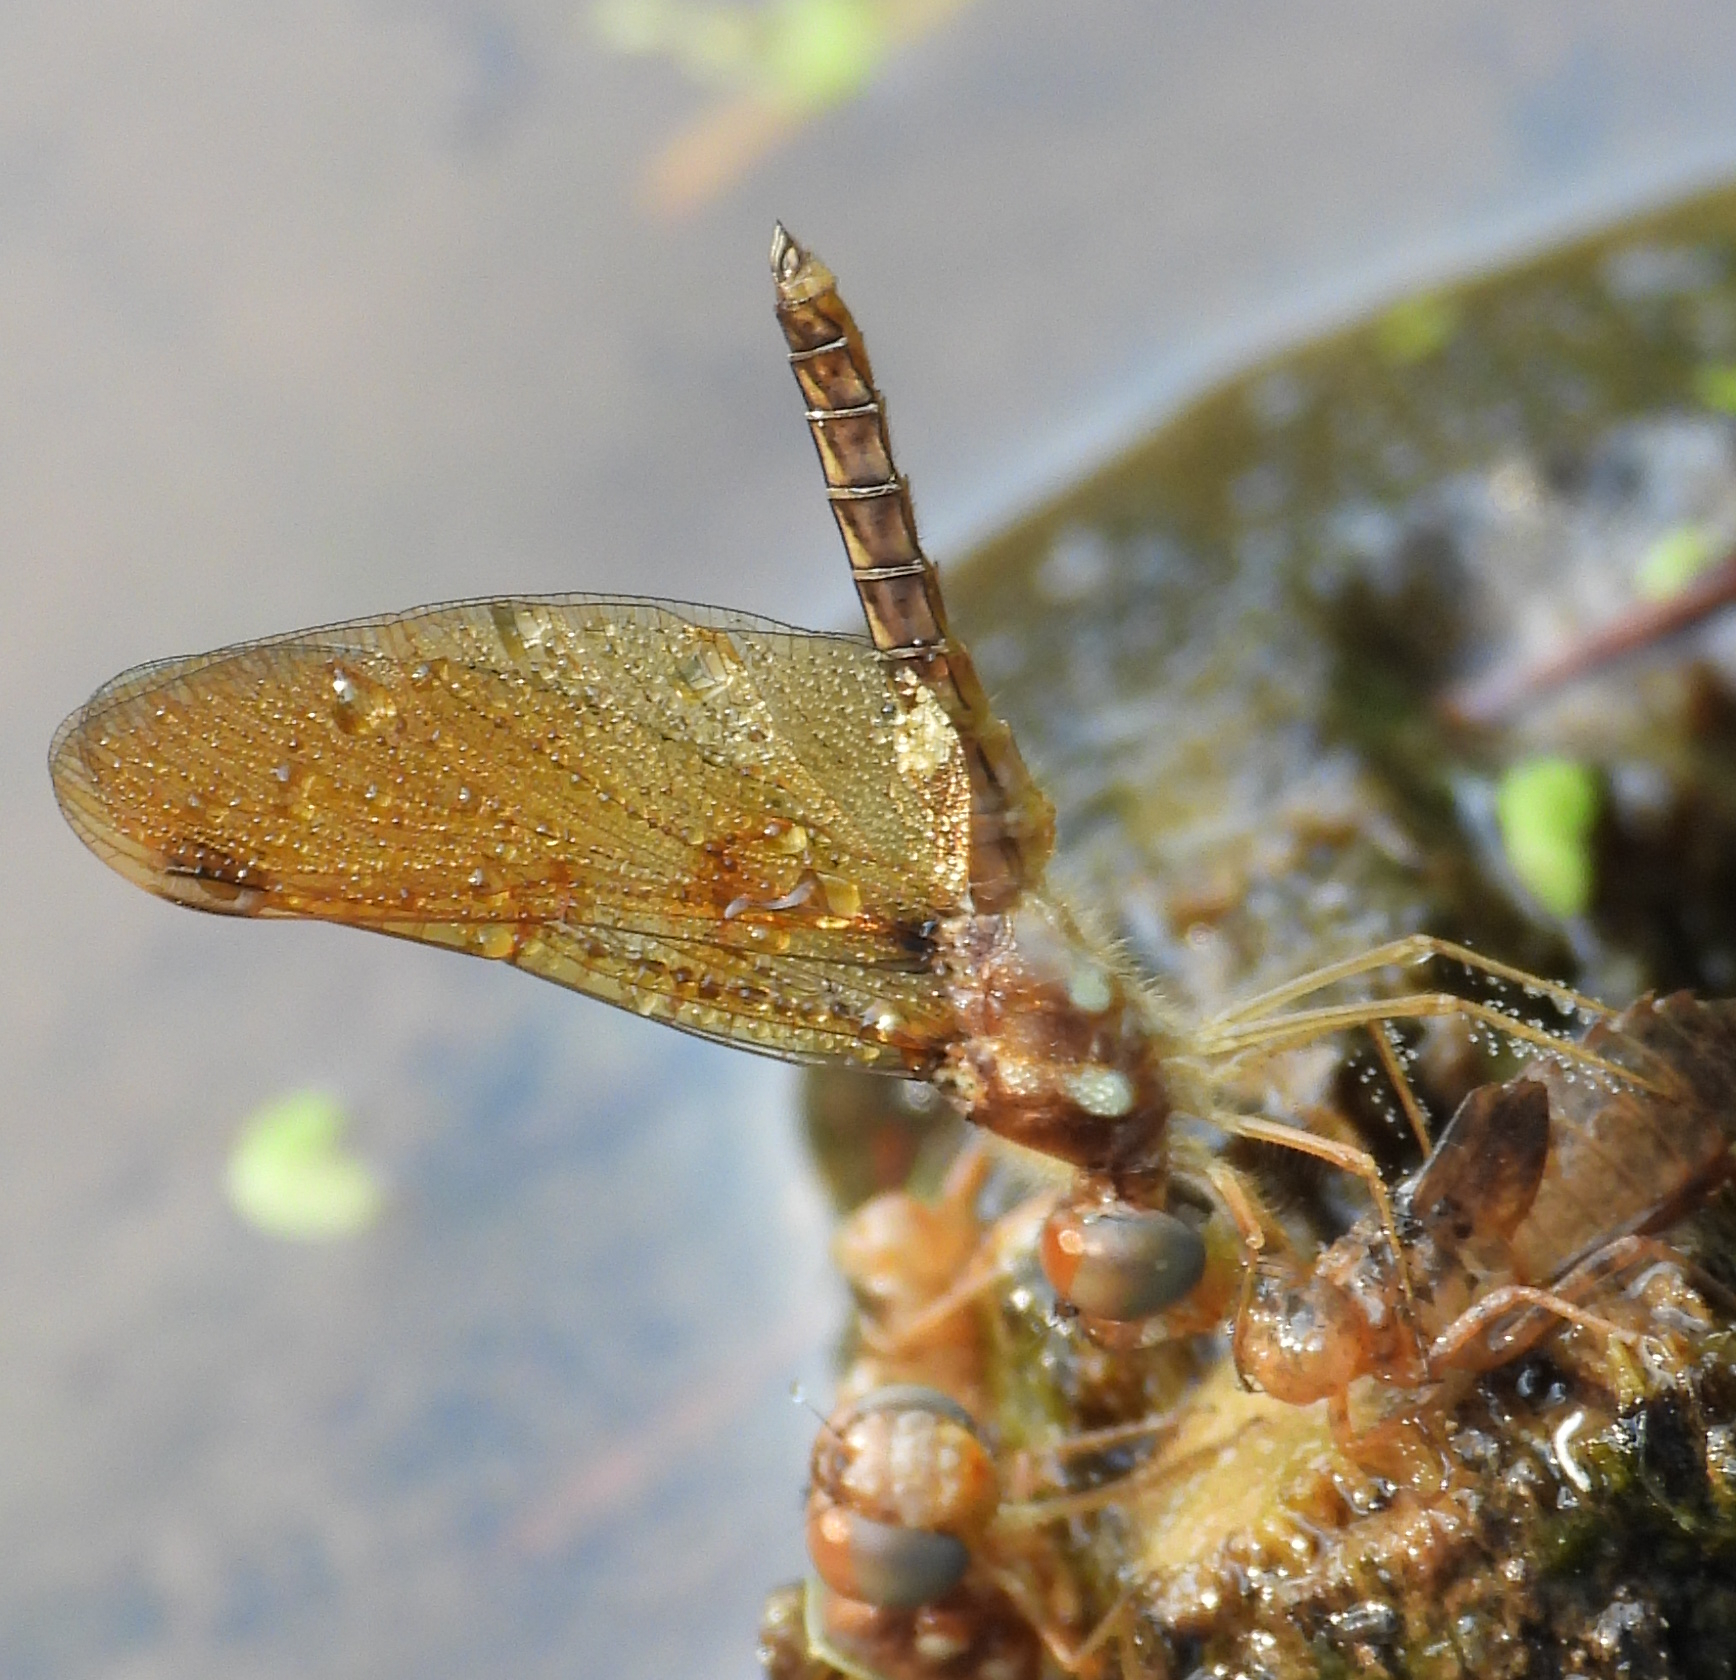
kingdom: Animalia
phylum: Arthropoda
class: Insecta
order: Odonata
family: Libellulidae
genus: Perithemis
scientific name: Perithemis tenera
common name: Eastern amberwing
